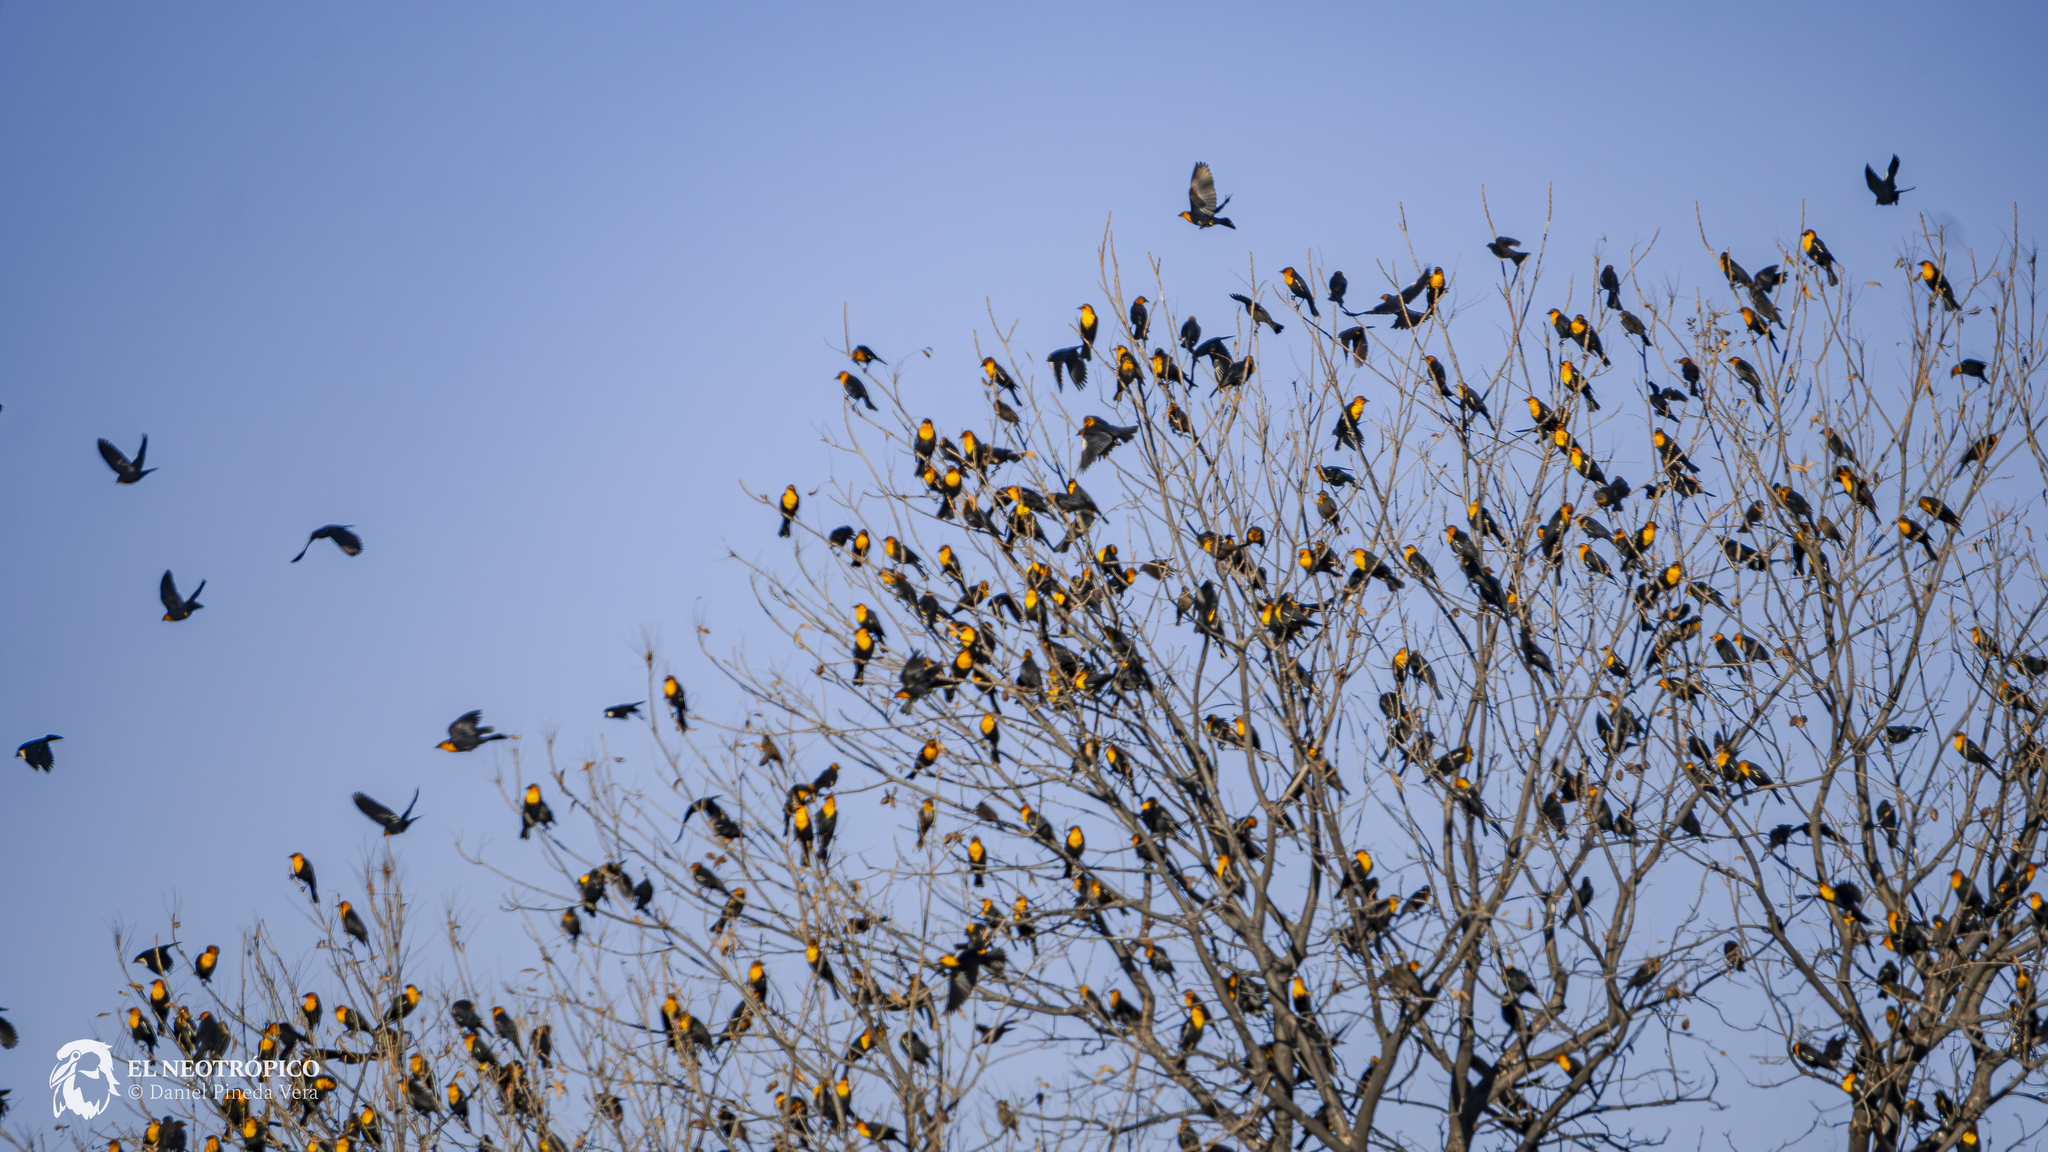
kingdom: Animalia
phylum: Chordata
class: Aves
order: Passeriformes
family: Icteridae
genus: Xanthocephalus
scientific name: Xanthocephalus xanthocephalus
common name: Yellow-headed blackbird
